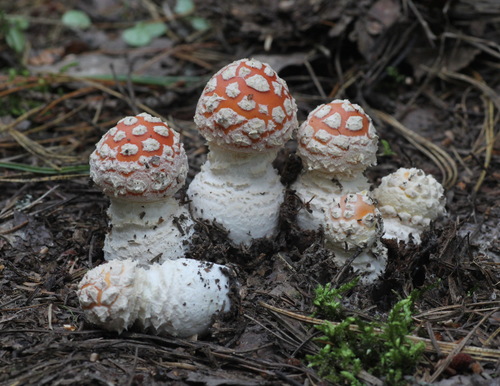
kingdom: Fungi
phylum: Basidiomycota
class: Agaricomycetes
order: Agaricales
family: Amanitaceae
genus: Amanita
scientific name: Amanita muscaria
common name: Fly agaric
